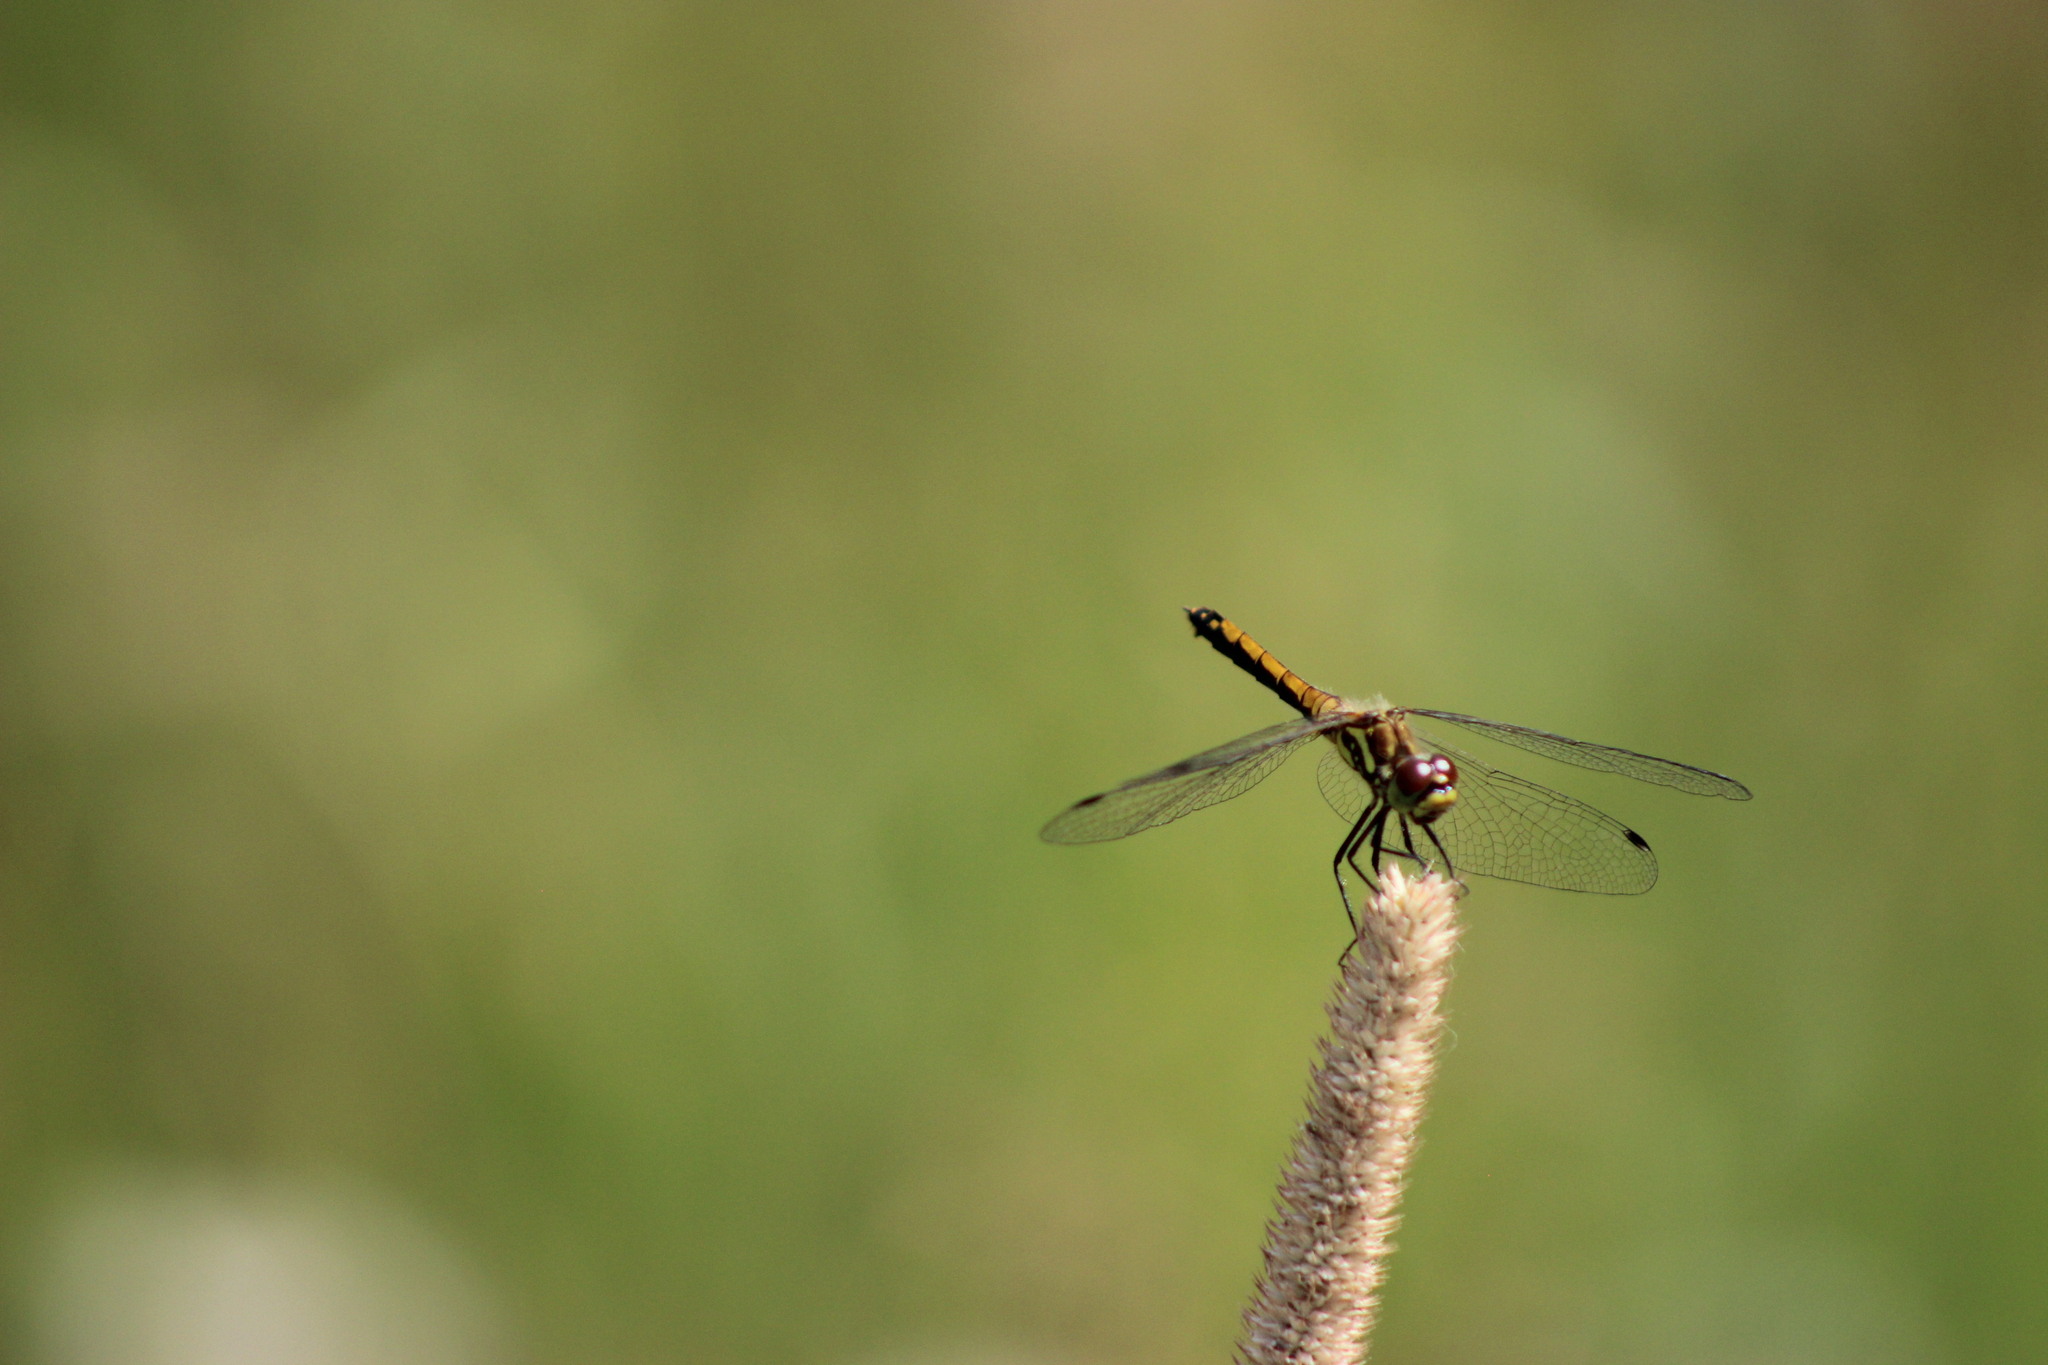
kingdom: Animalia
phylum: Arthropoda
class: Insecta
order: Odonata
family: Libellulidae
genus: Sympetrum
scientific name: Sympetrum danae
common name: Black darter
